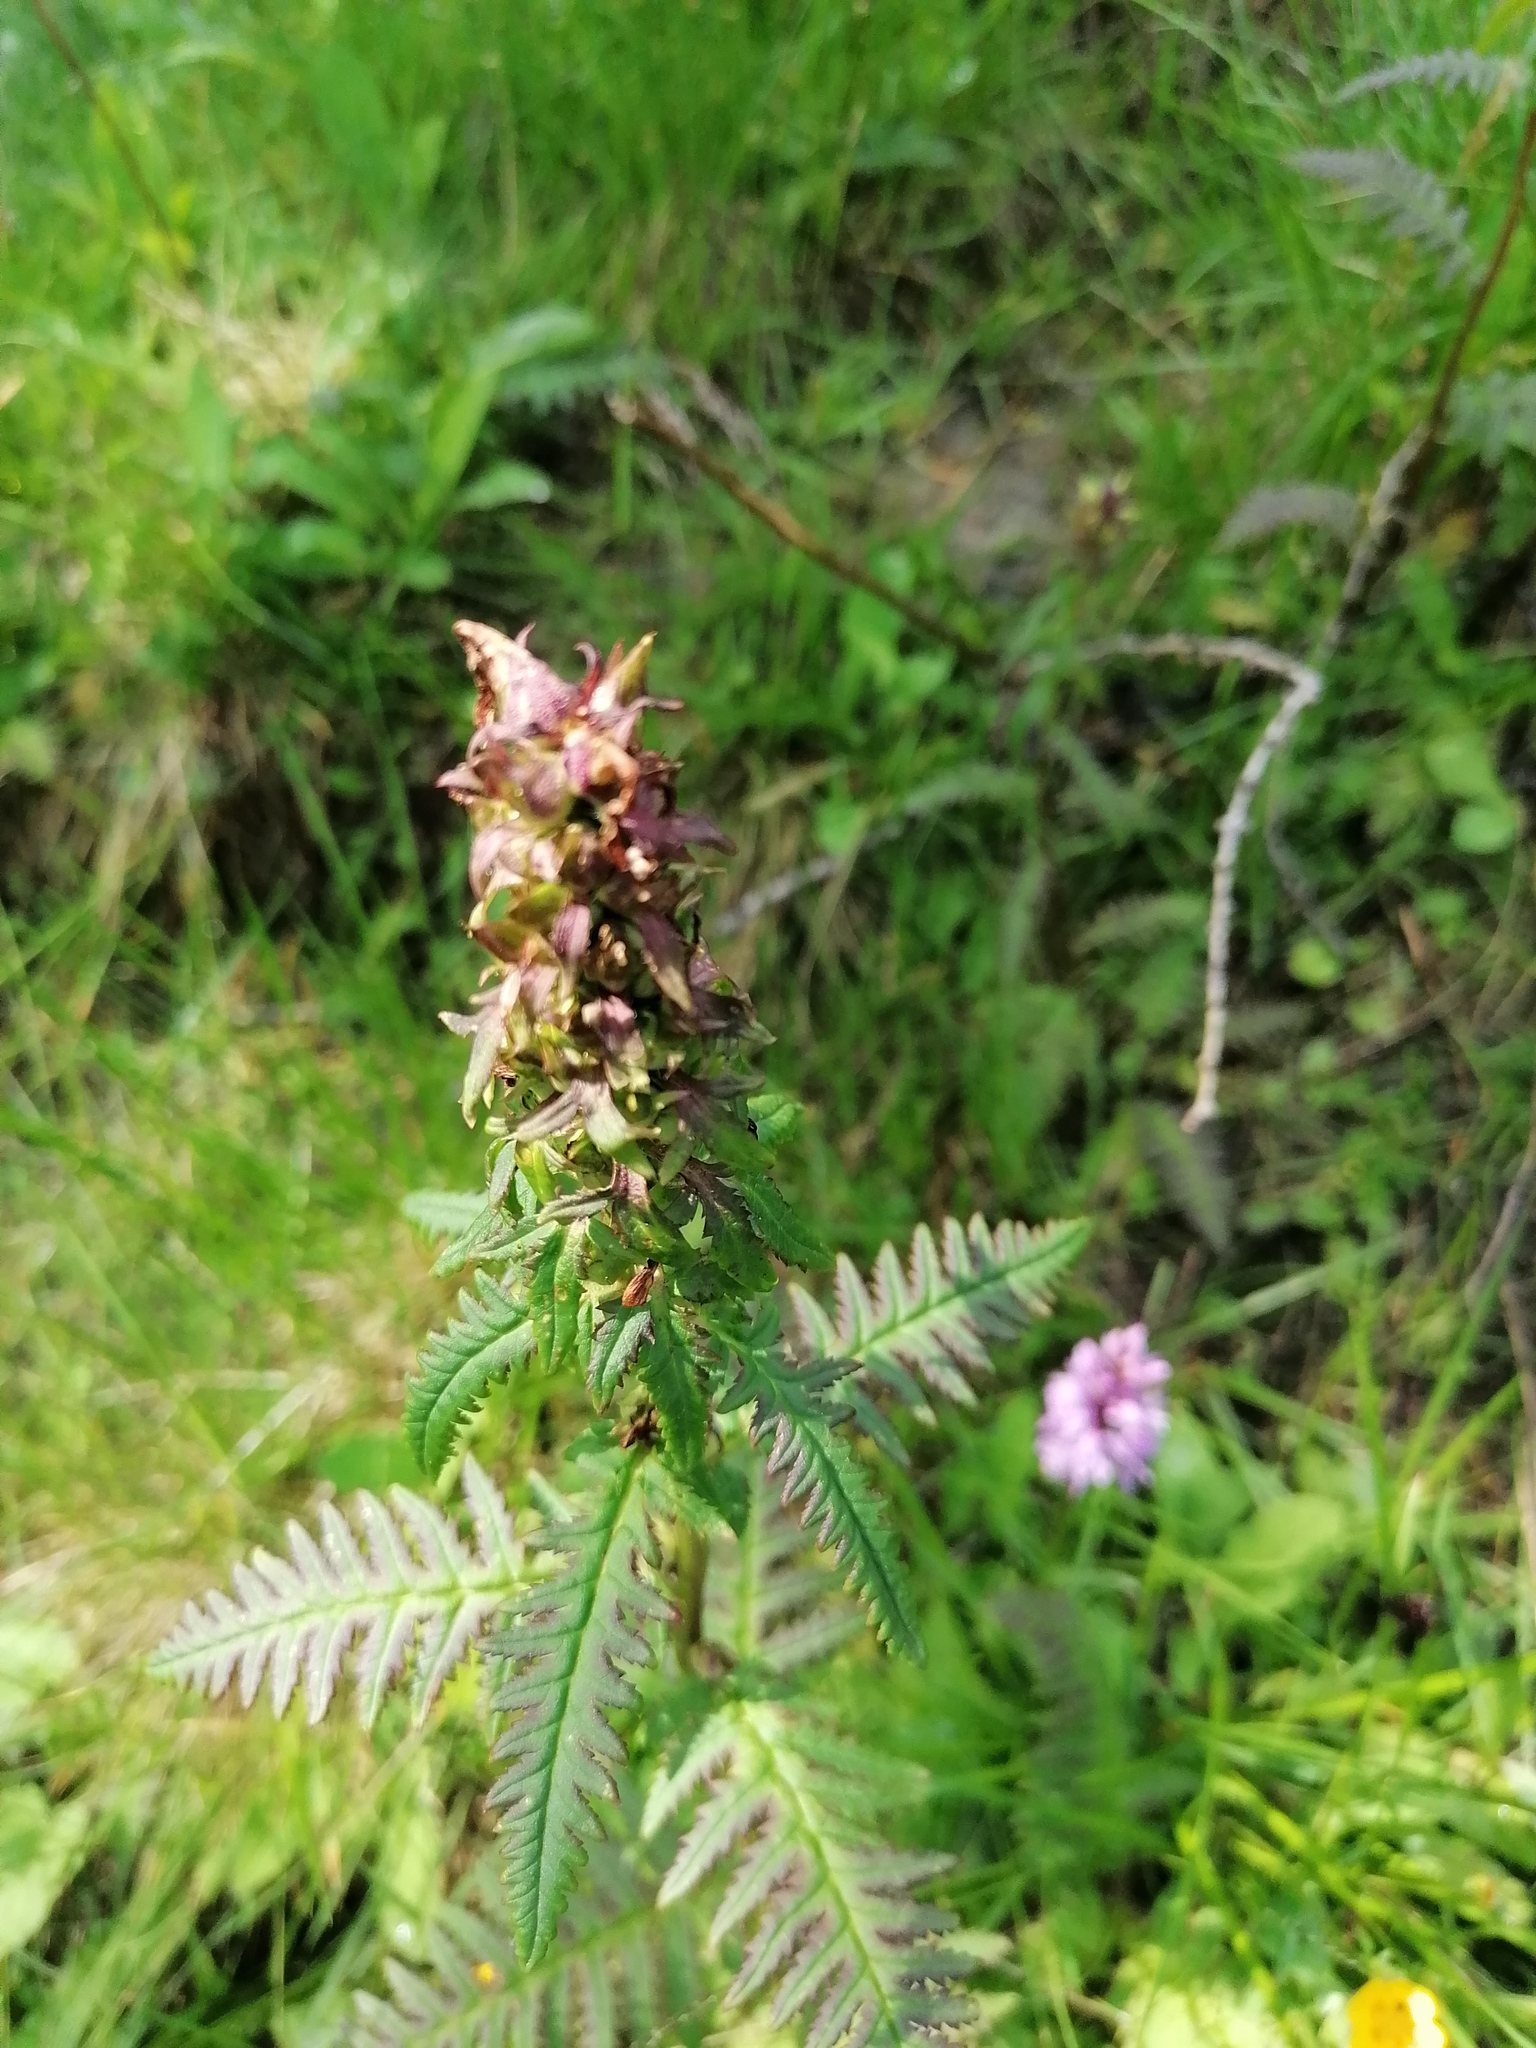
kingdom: Plantae
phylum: Tracheophyta
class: Magnoliopsida
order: Lamiales
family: Orobanchaceae
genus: Pedicularis
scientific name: Pedicularis recutita
